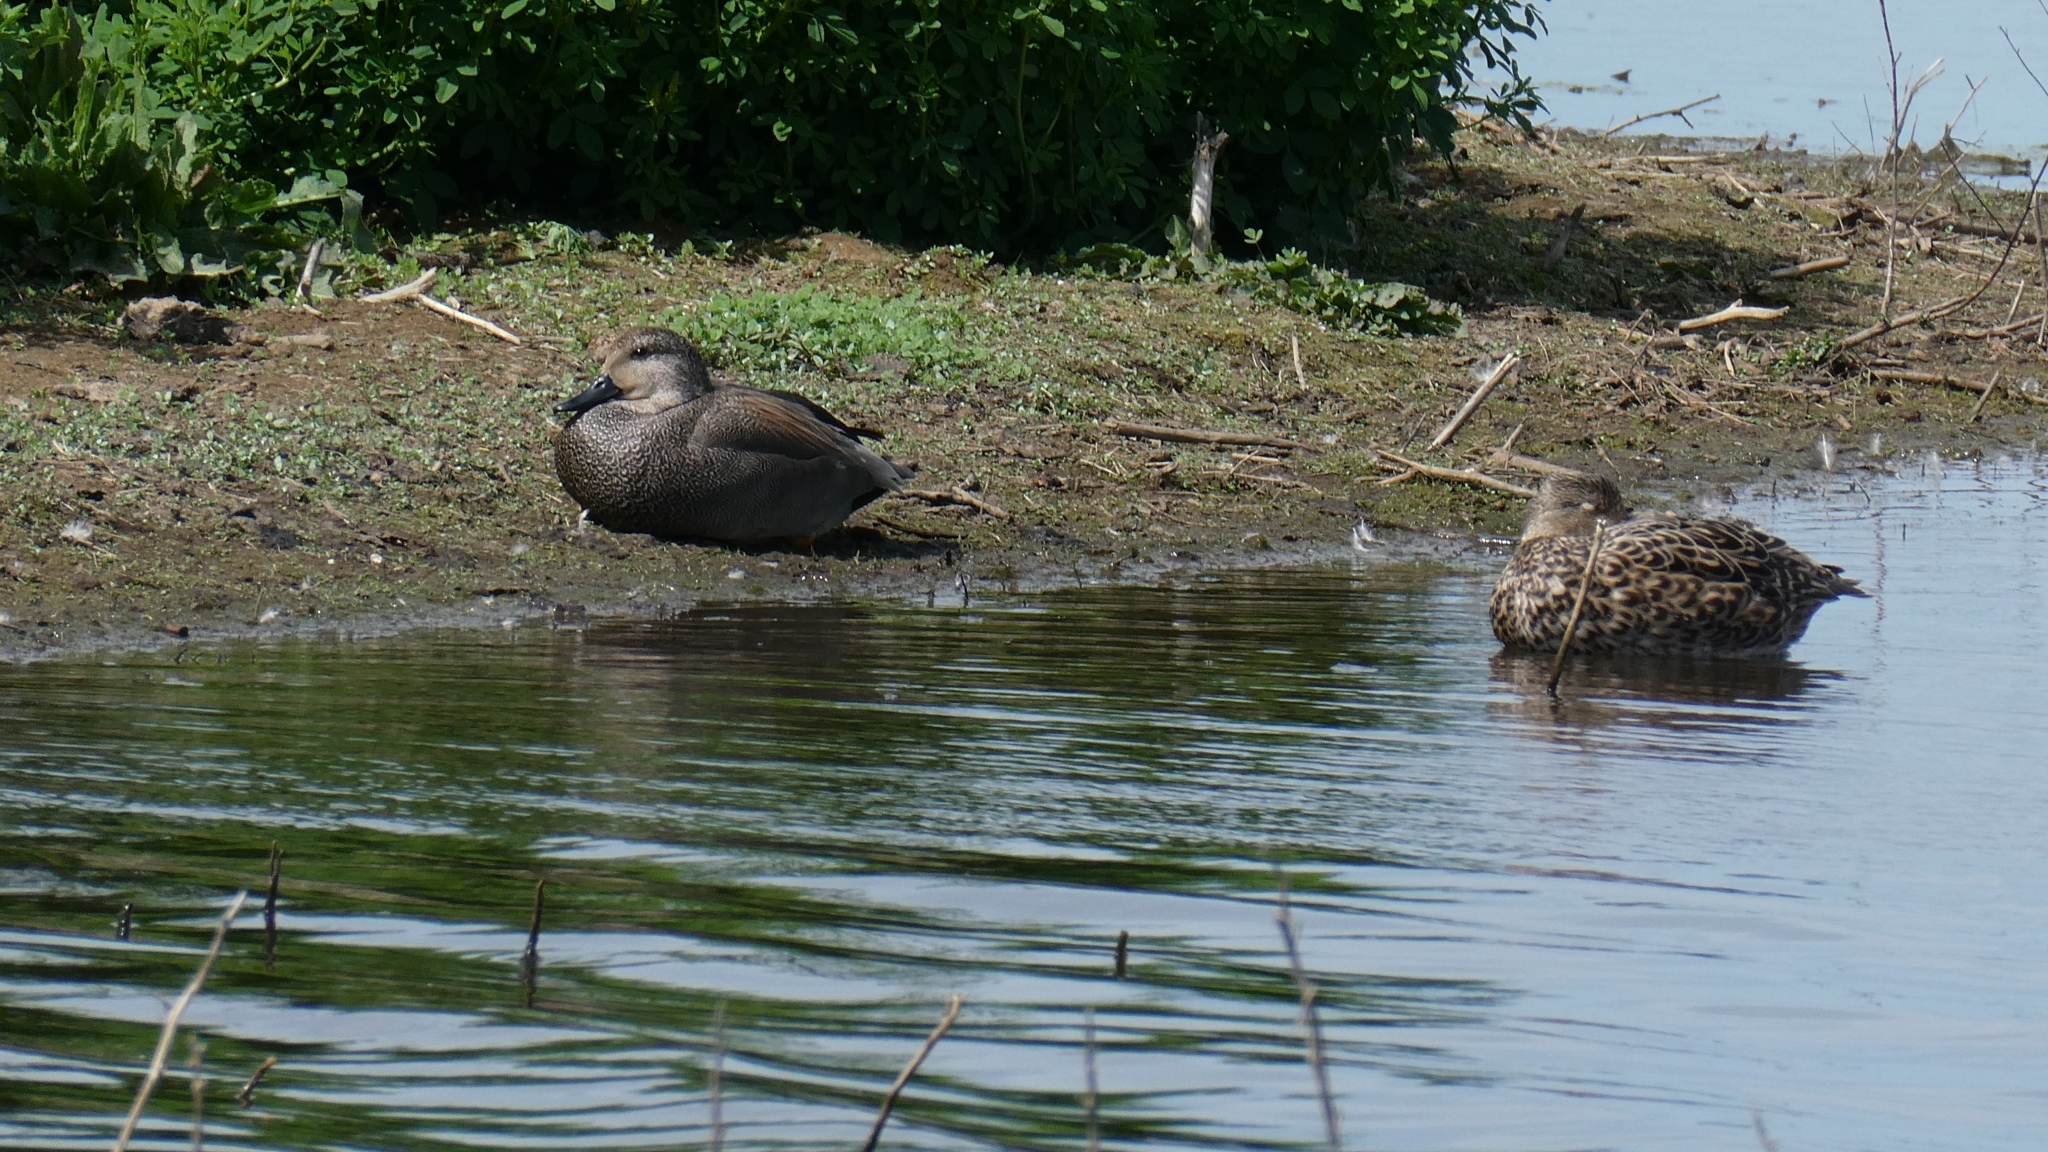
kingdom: Animalia
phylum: Chordata
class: Aves
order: Anseriformes
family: Anatidae
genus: Mareca
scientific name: Mareca strepera
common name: Gadwall
